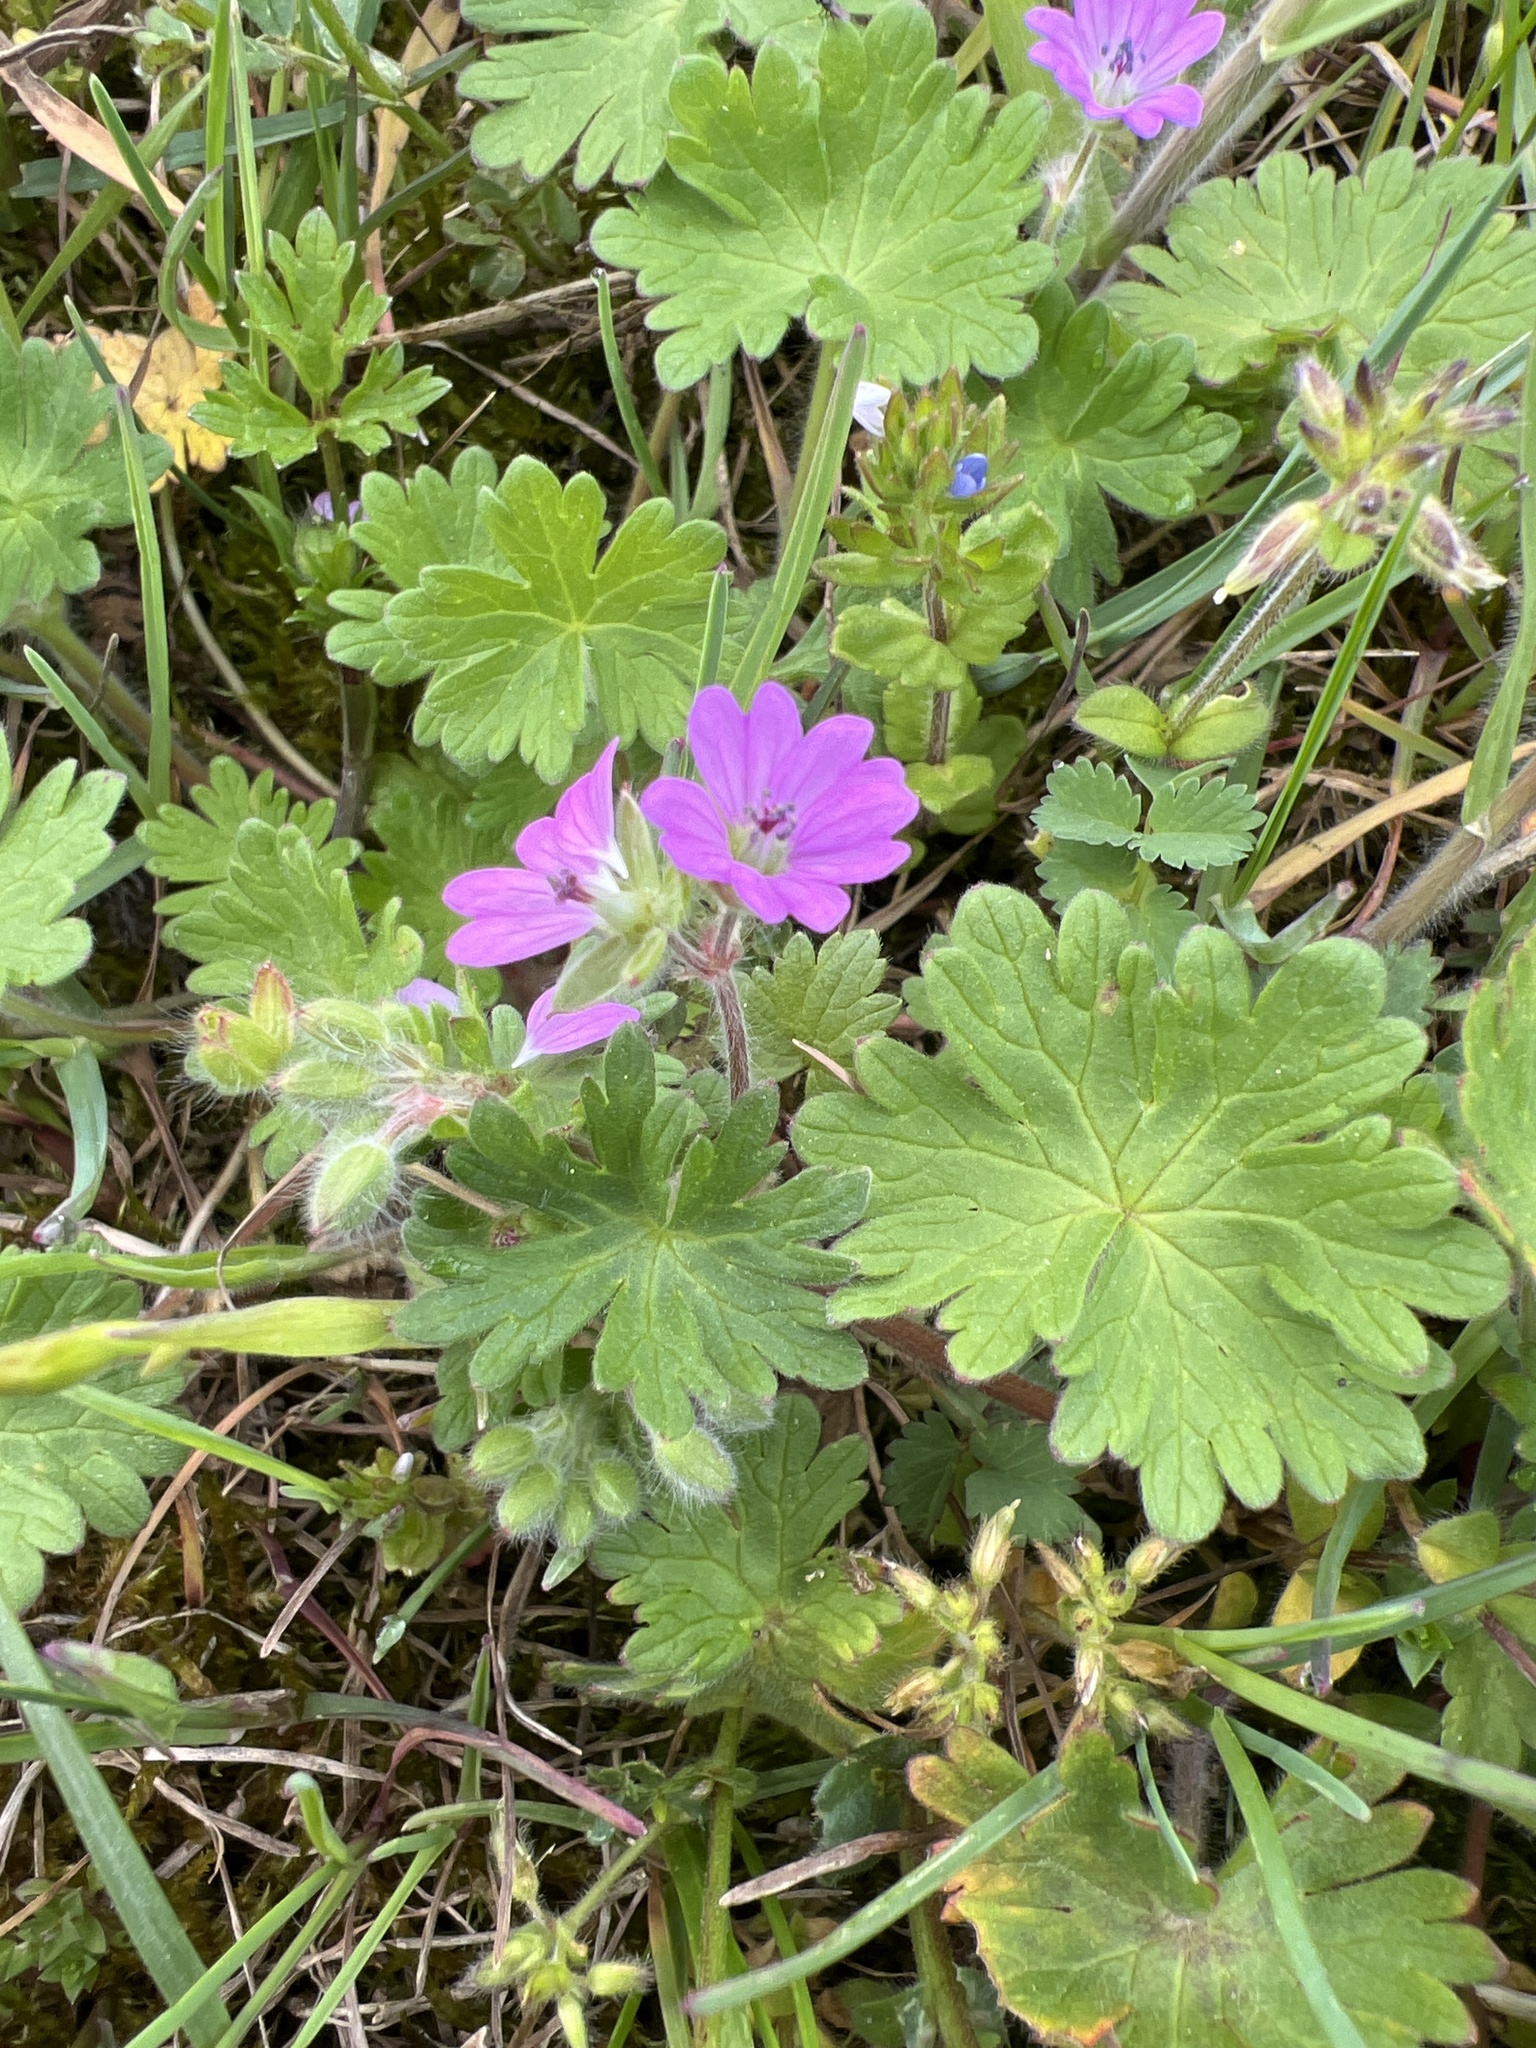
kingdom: Plantae
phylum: Tracheophyta
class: Magnoliopsida
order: Geraniales
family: Geraniaceae
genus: Geranium
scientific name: Geranium pyrenaicum
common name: Hedgerow crane's-bill
